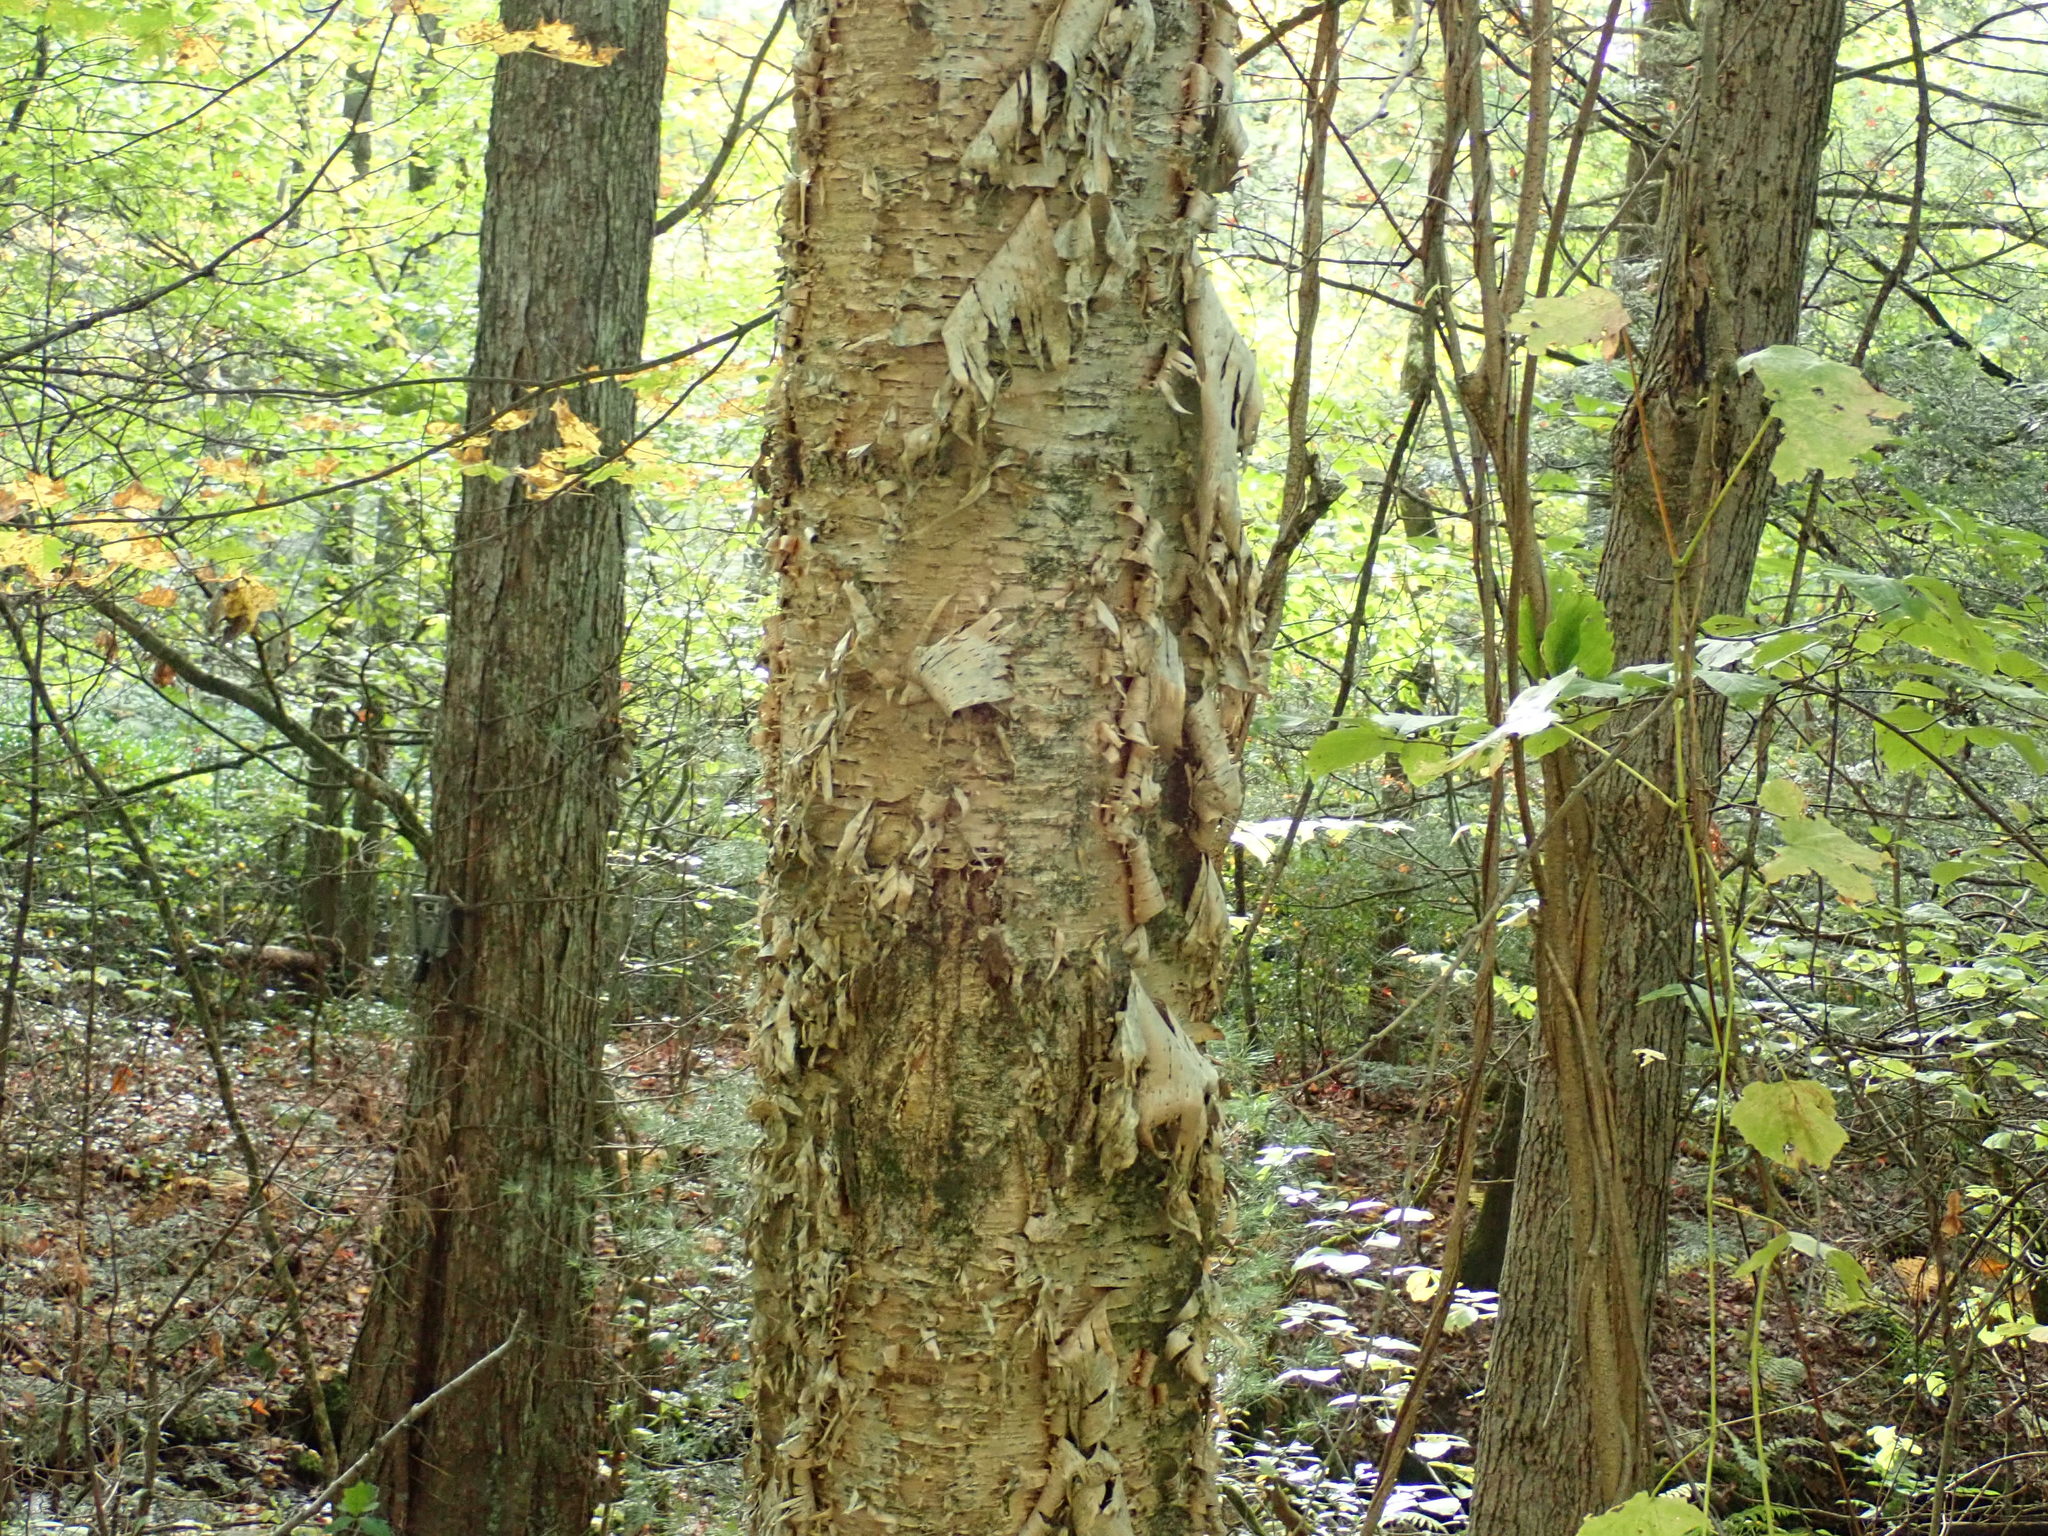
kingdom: Plantae
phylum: Tracheophyta
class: Magnoliopsida
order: Fagales
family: Betulaceae
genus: Betula
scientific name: Betula alleghaniensis
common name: Yellow birch
